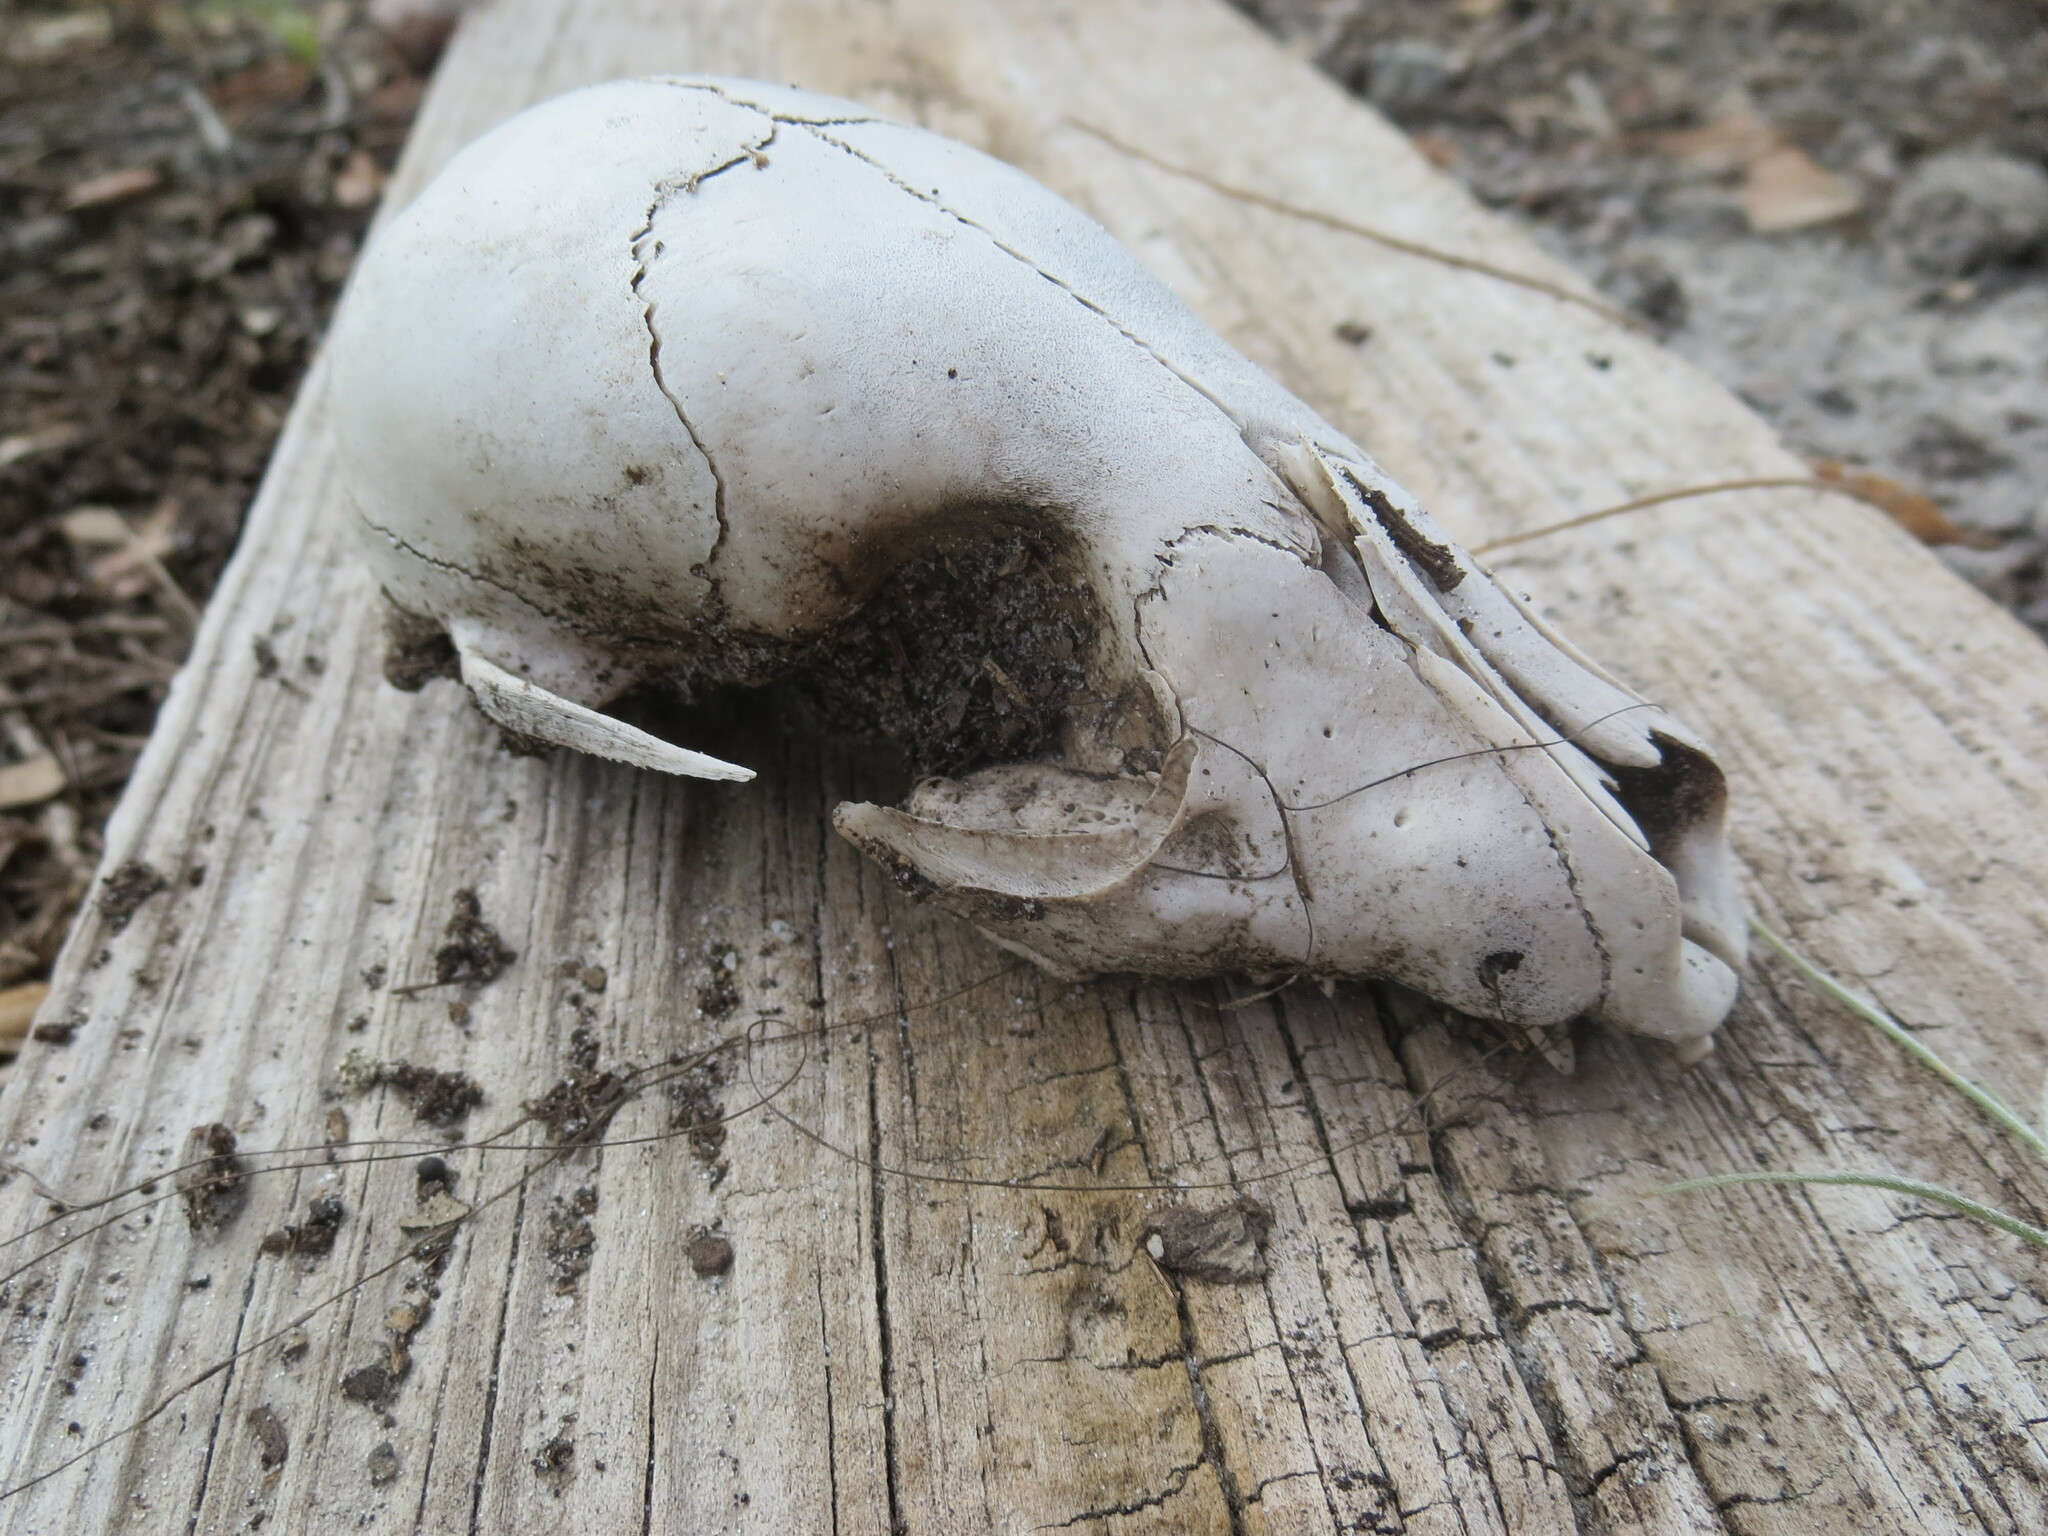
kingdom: Animalia
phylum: Chordata
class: Mammalia
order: Carnivora
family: Procyonidae
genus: Procyon
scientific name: Procyon lotor
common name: Raccoon
